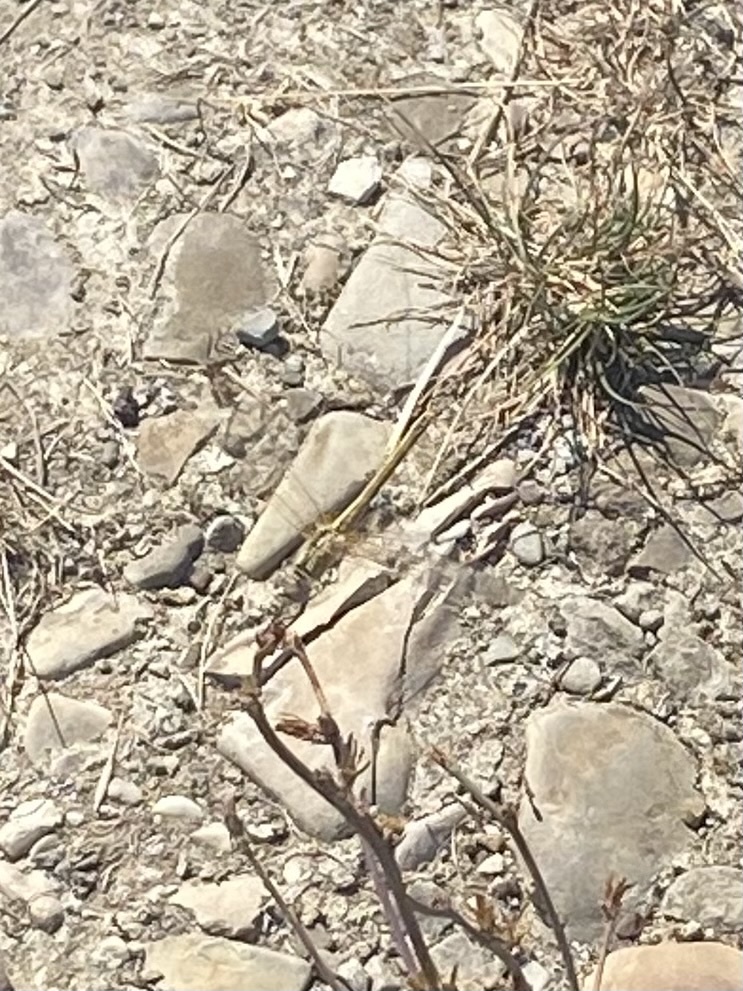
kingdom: Animalia
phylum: Arthropoda
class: Insecta
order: Odonata
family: Libellulidae
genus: Sympetrum
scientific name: Sympetrum fonscolombii
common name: Red-veined darter
